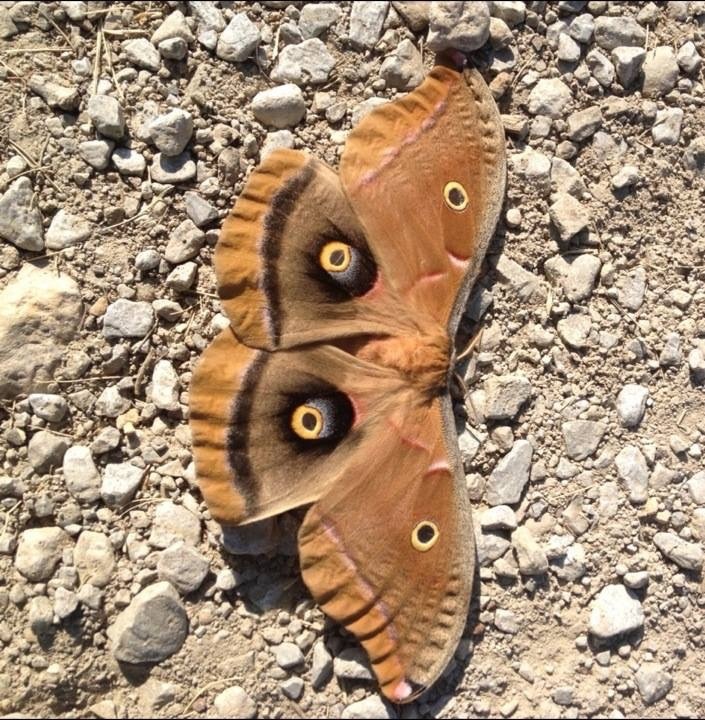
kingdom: Animalia
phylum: Arthropoda
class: Insecta
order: Lepidoptera
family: Saturniidae
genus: Antheraea
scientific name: Antheraea polyphemus
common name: Polyphemus moth
